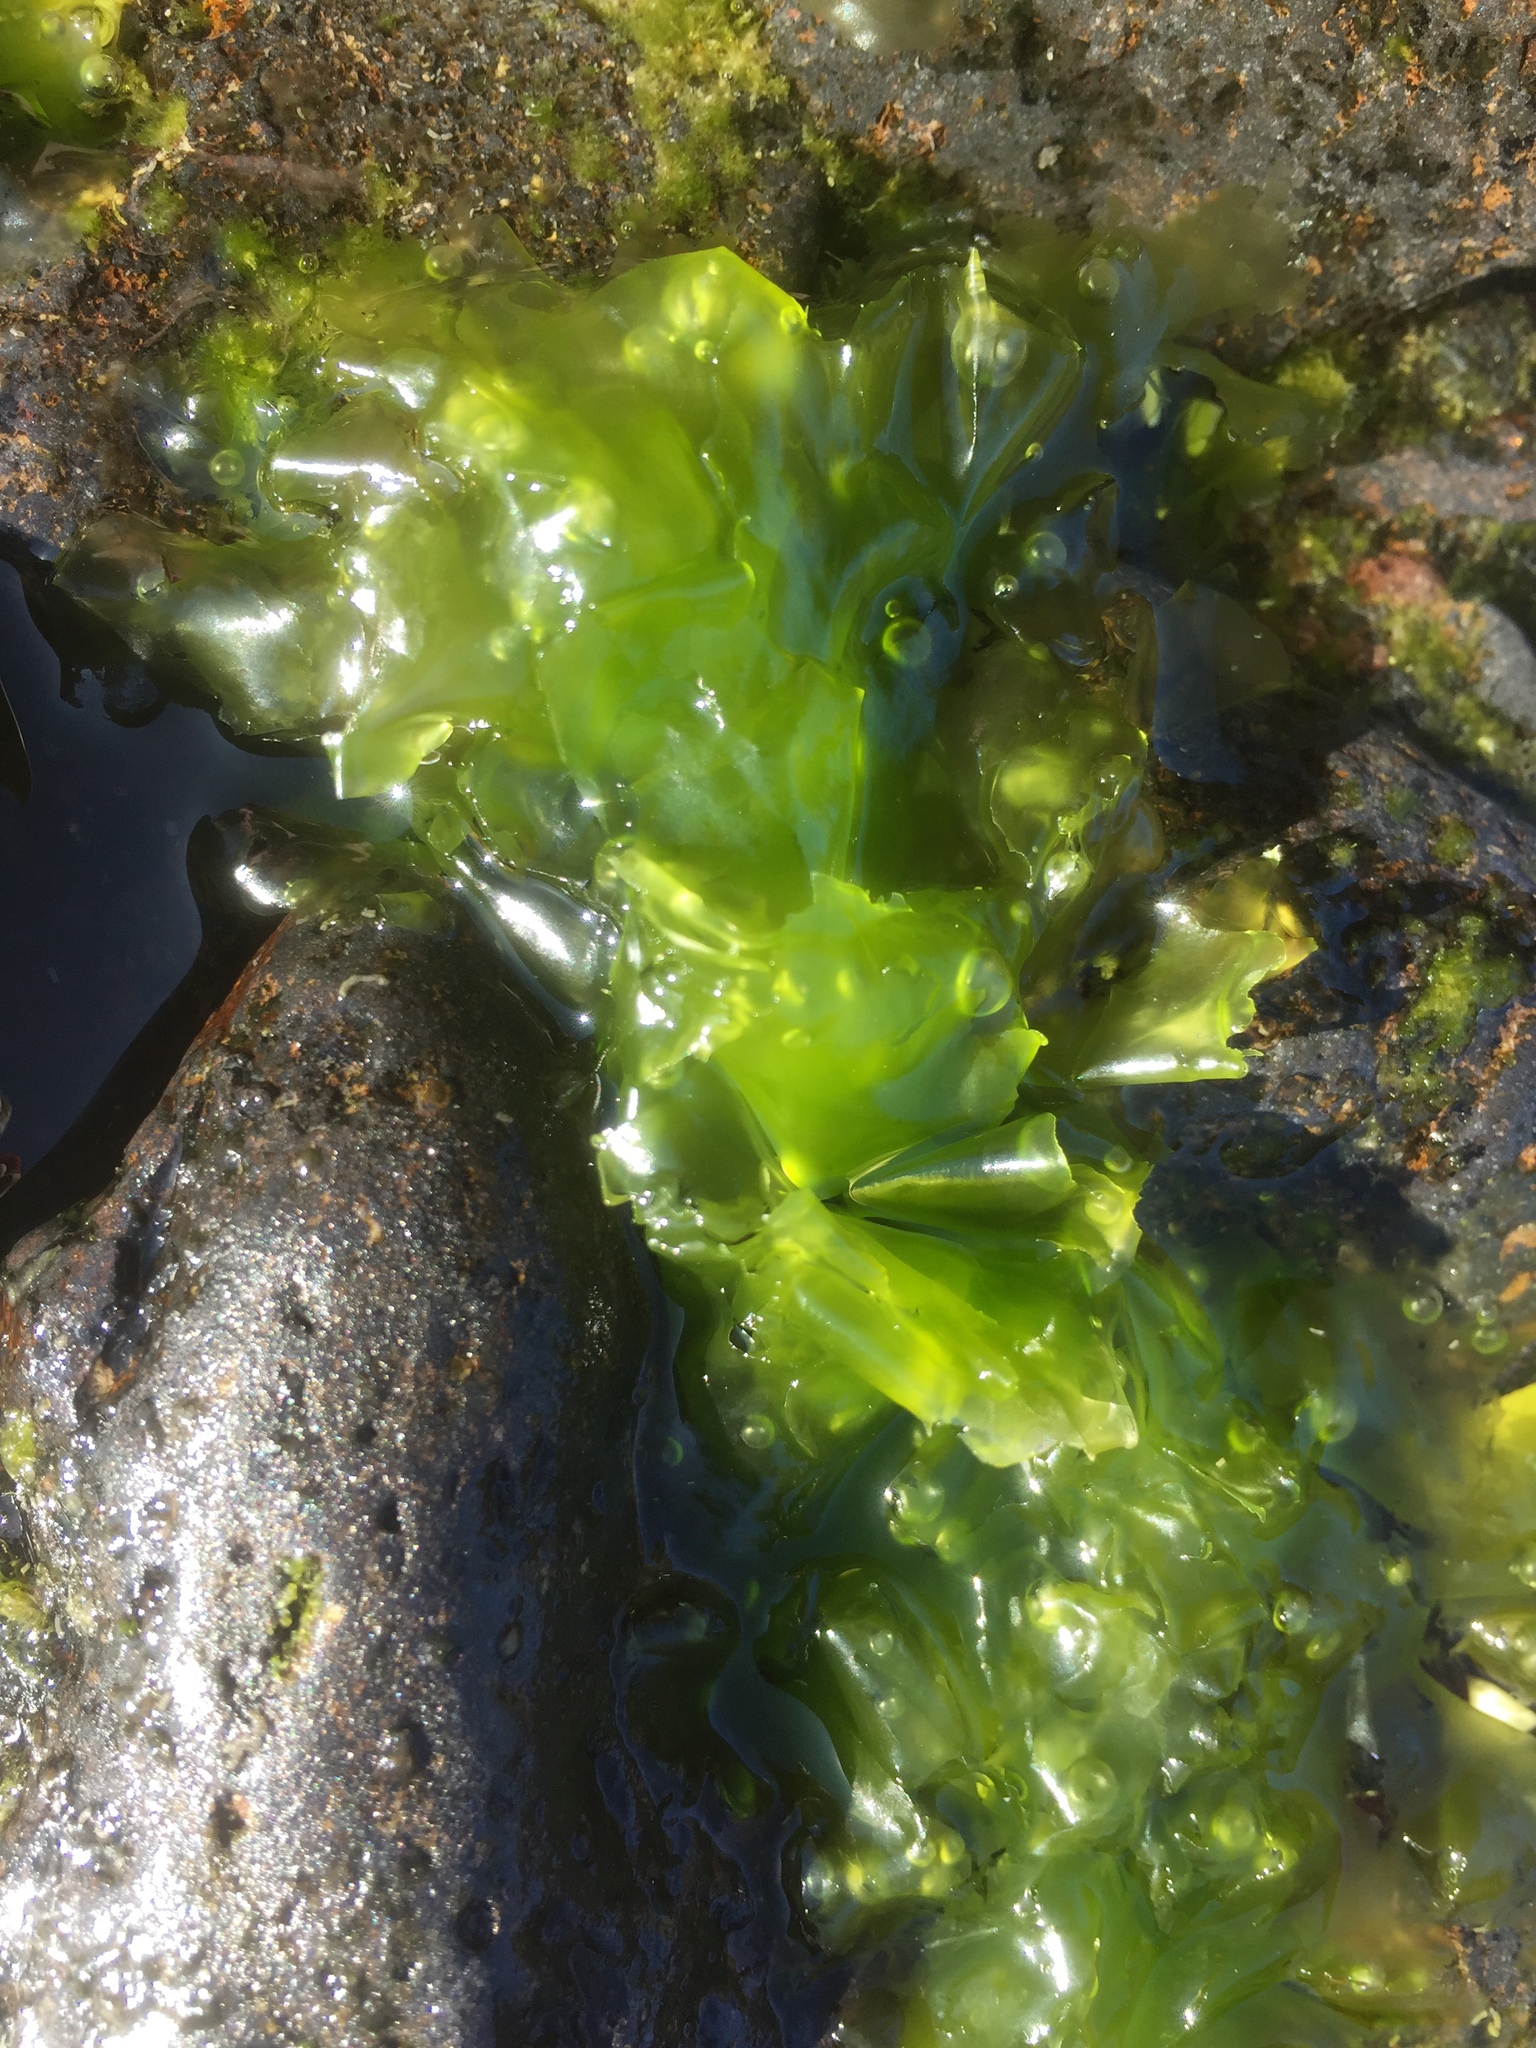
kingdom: Plantae
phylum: Chlorophyta
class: Ulvophyceae
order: Ulvales
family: Ulvaceae
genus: Ulva
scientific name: Ulva lactuca
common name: Sea lettuce
